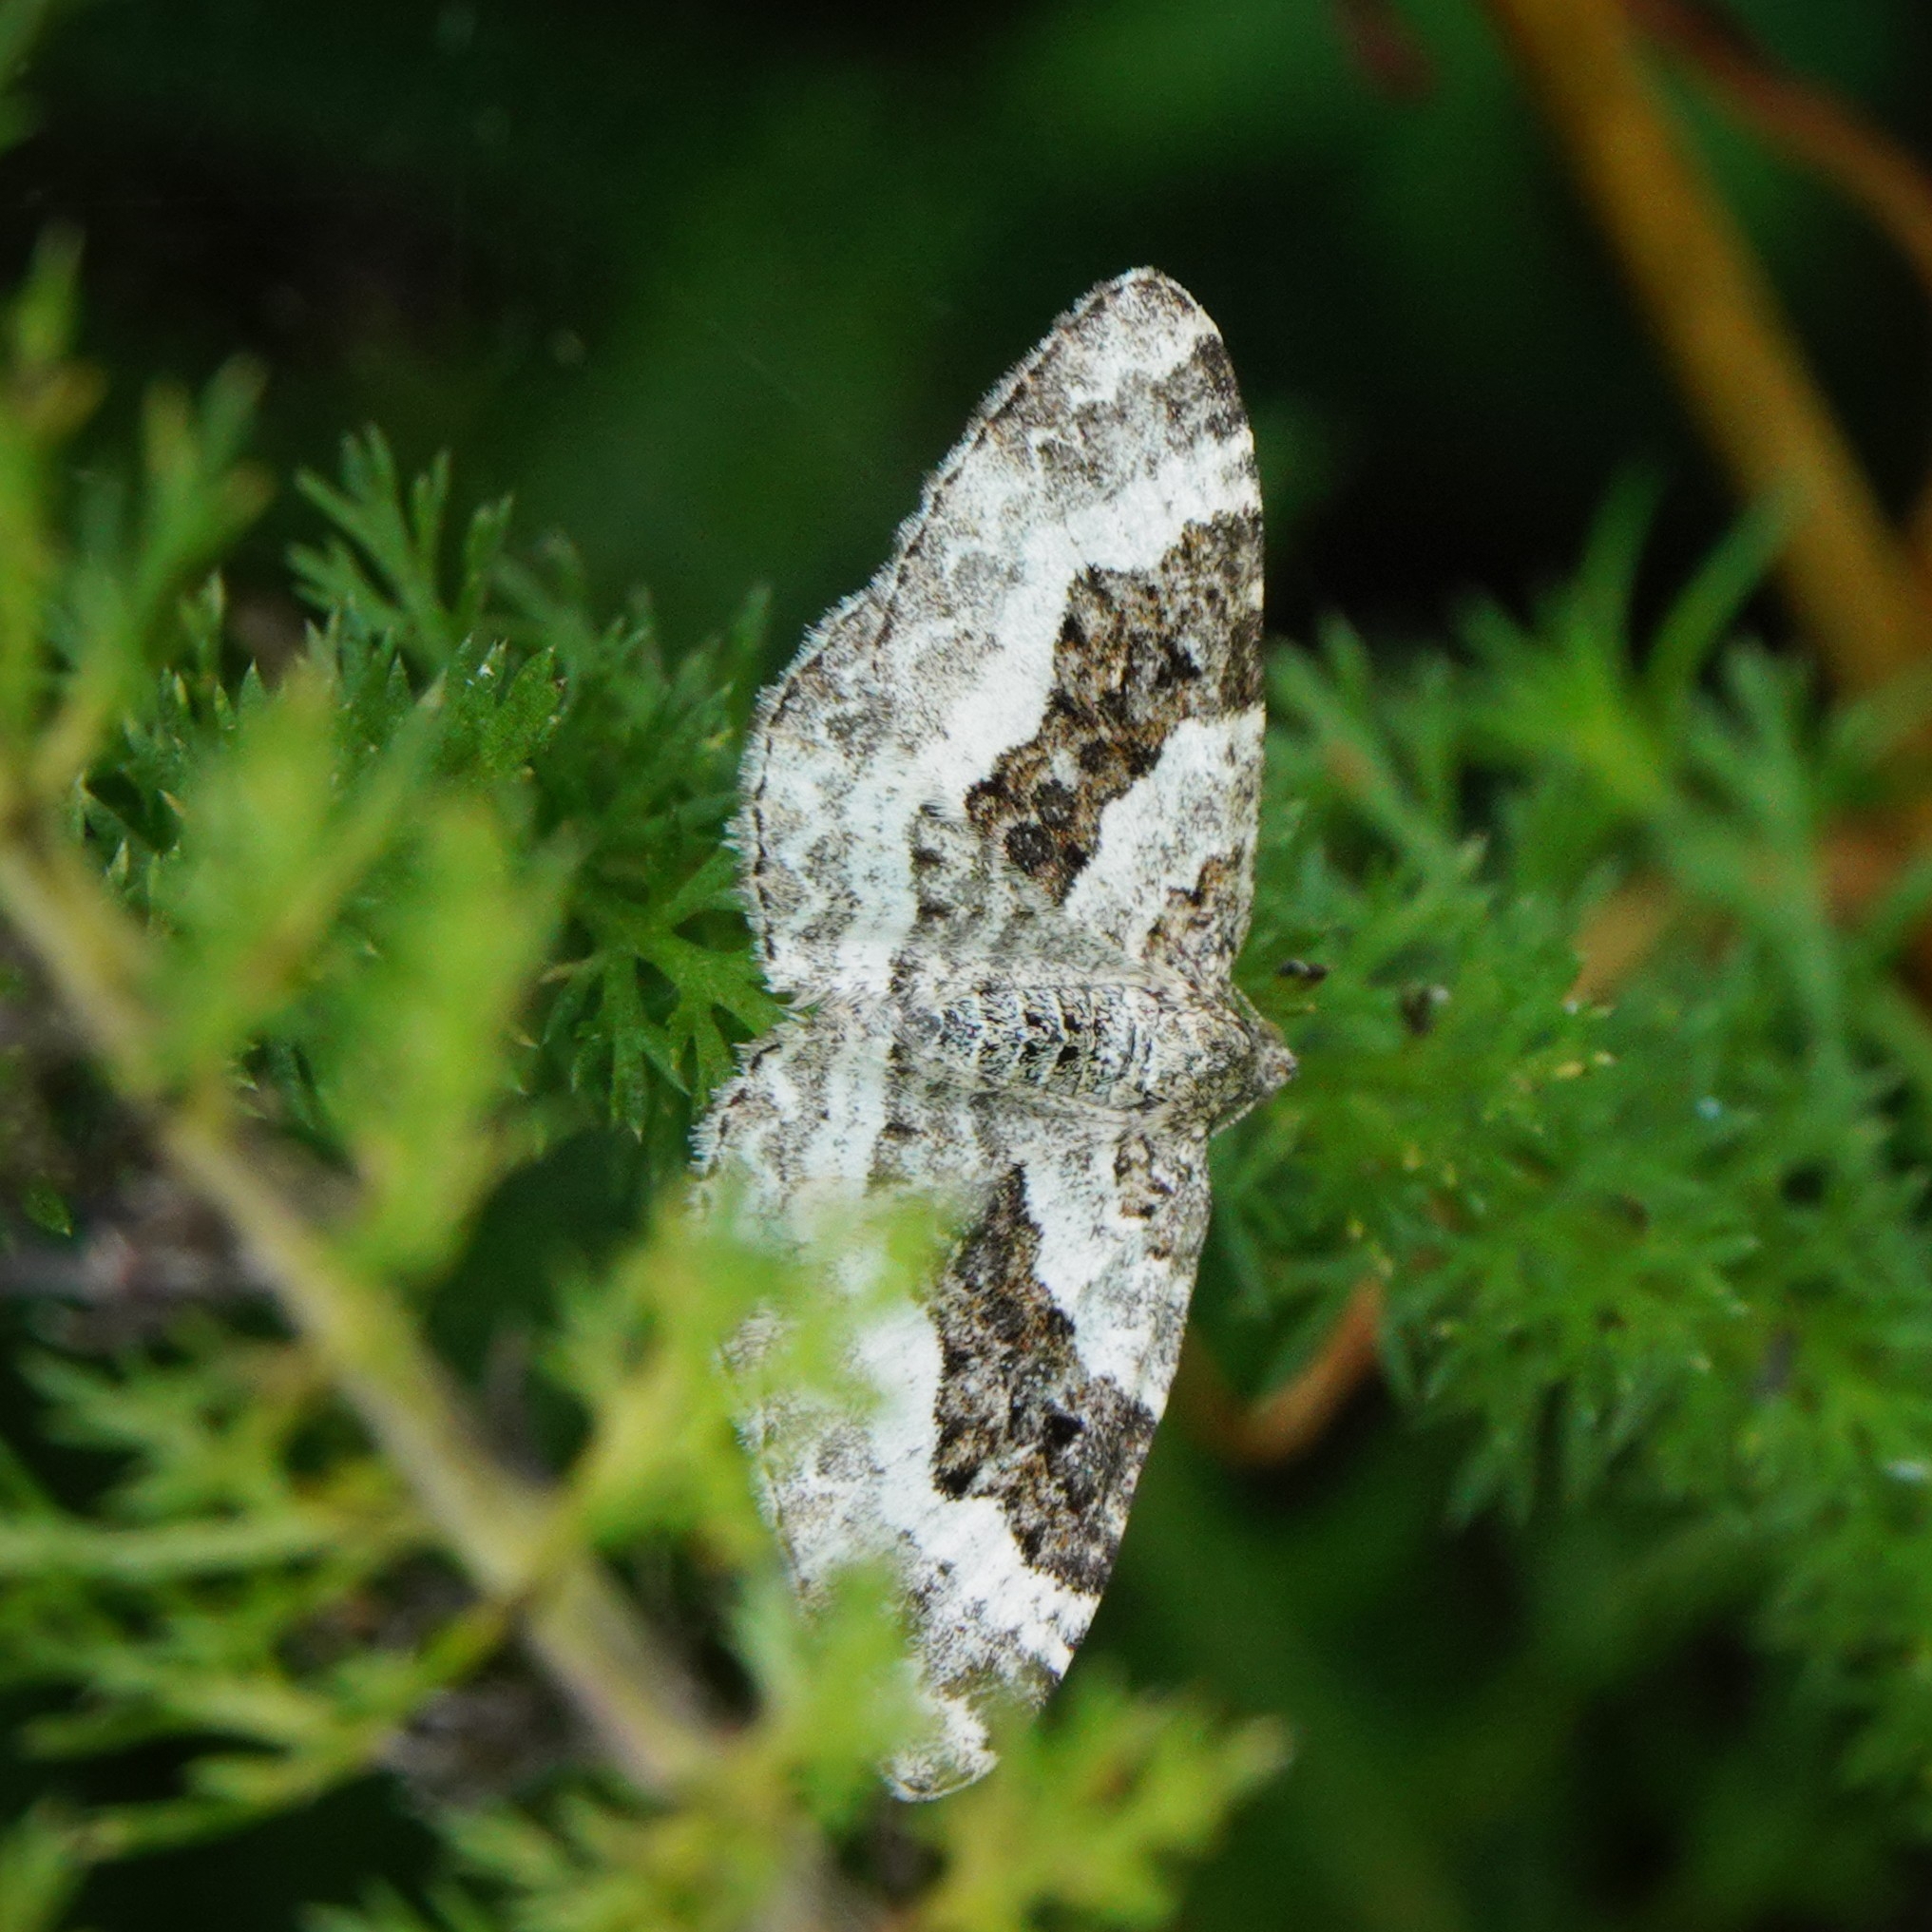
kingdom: Animalia
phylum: Arthropoda
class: Insecta
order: Lepidoptera
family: Geometridae
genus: Epirrhoe
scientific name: Epirrhoe alternata
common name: Common carpet
